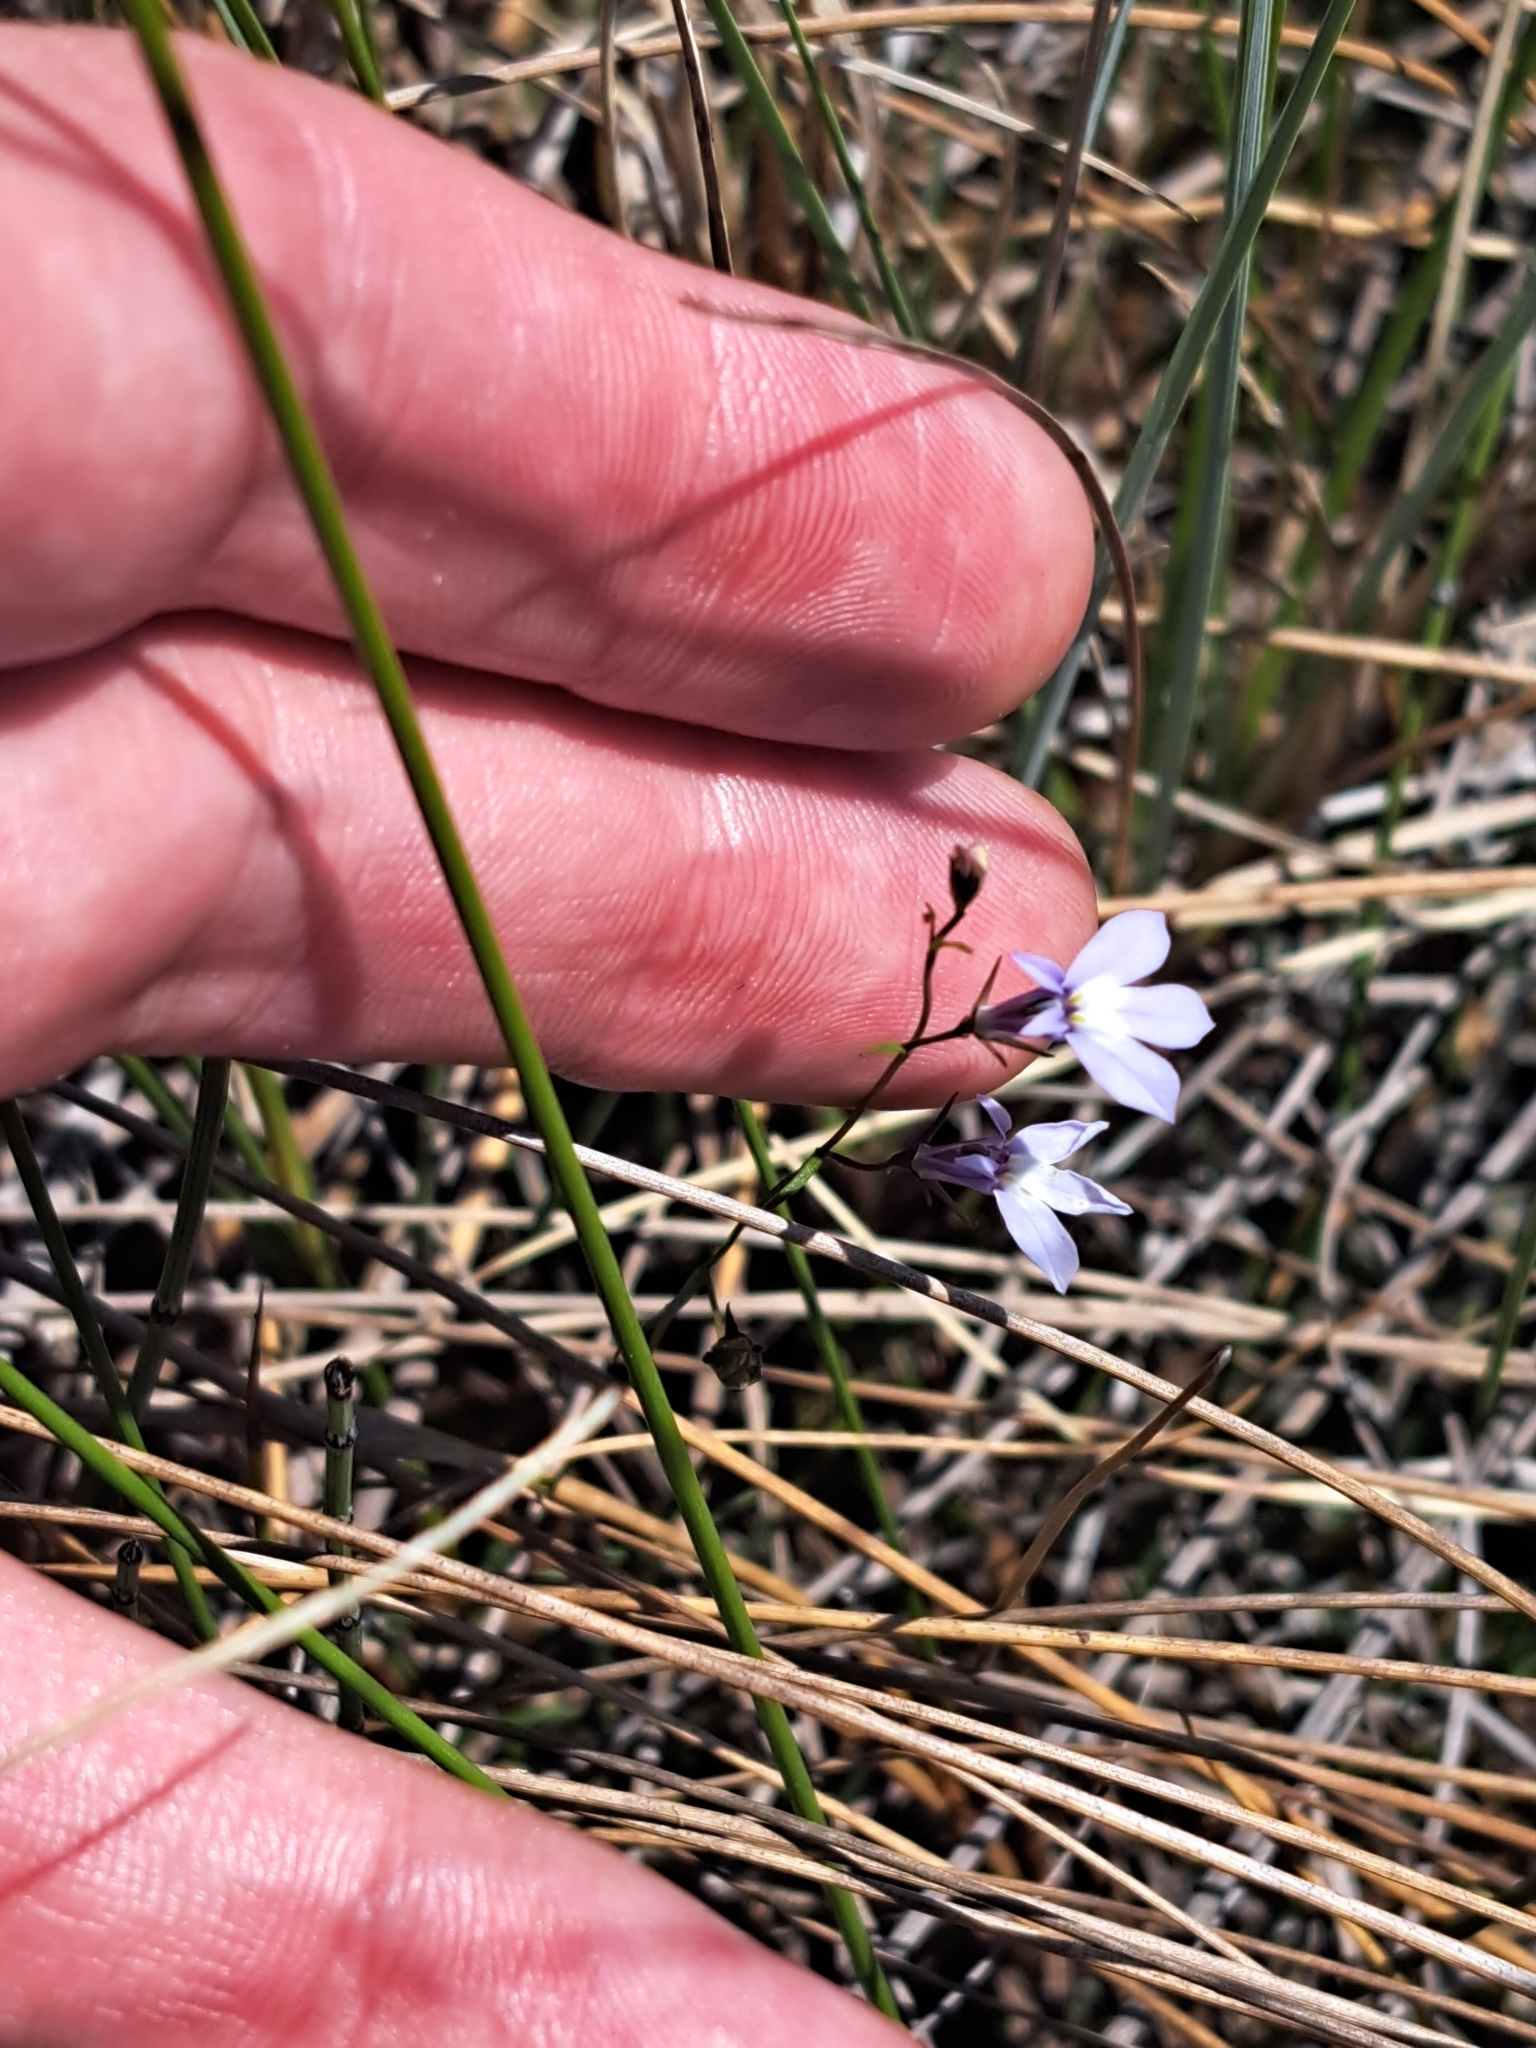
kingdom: Plantae
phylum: Tracheophyta
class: Magnoliopsida
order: Asterales
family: Campanulaceae
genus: Lobelia
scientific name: Lobelia kalmii
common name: Kalm's lobelia
